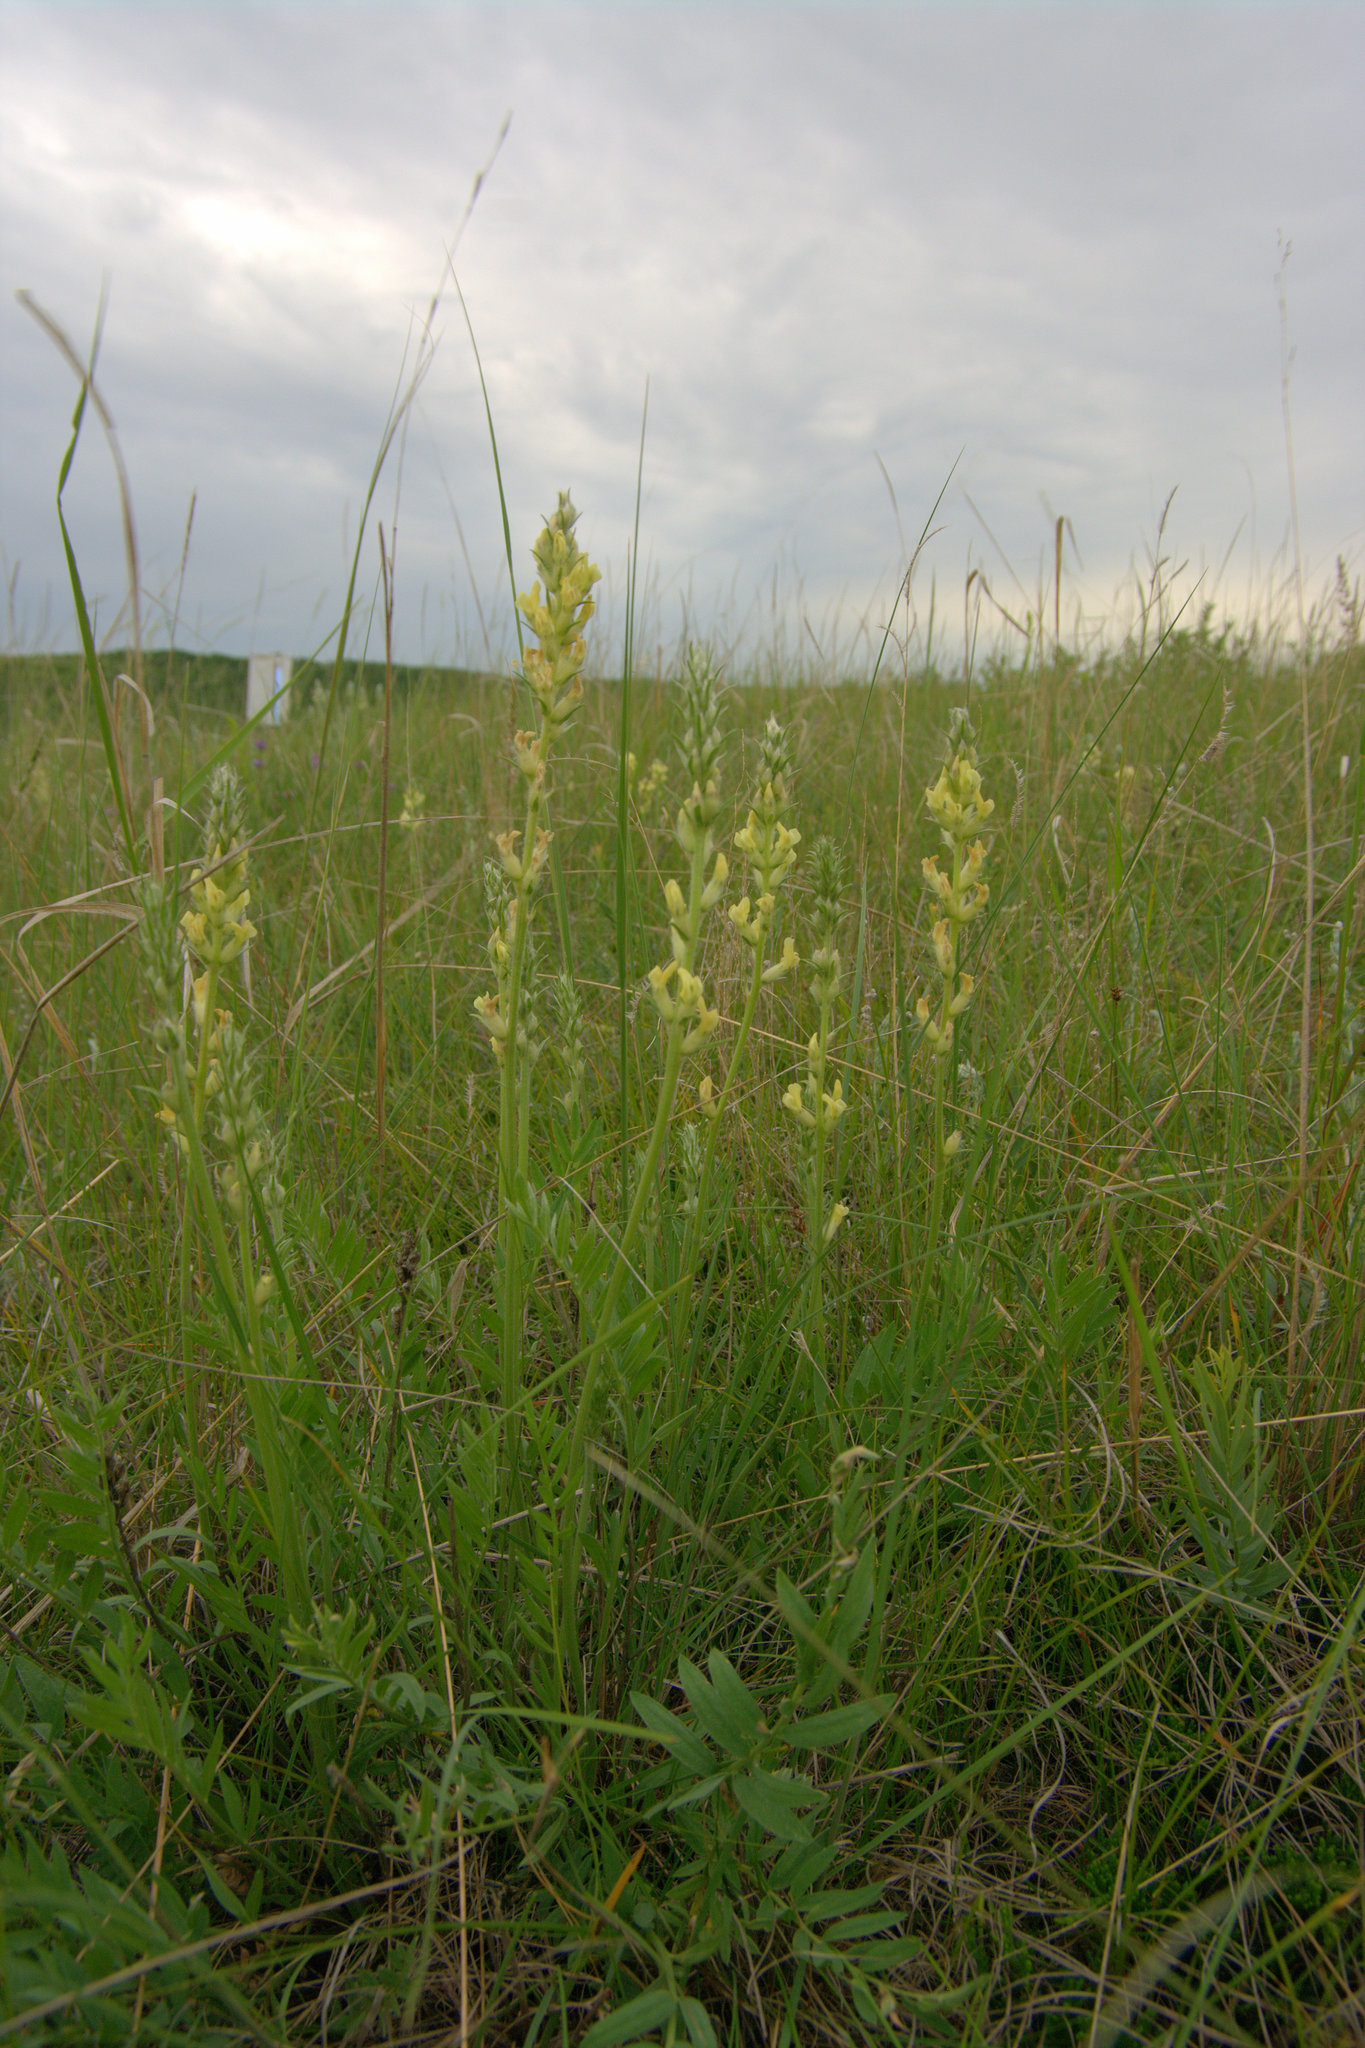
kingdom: Plantae
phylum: Tracheophyta
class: Magnoliopsida
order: Fabales
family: Fabaceae
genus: Oxytropis
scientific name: Oxytropis campestris
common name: Field locoweed
